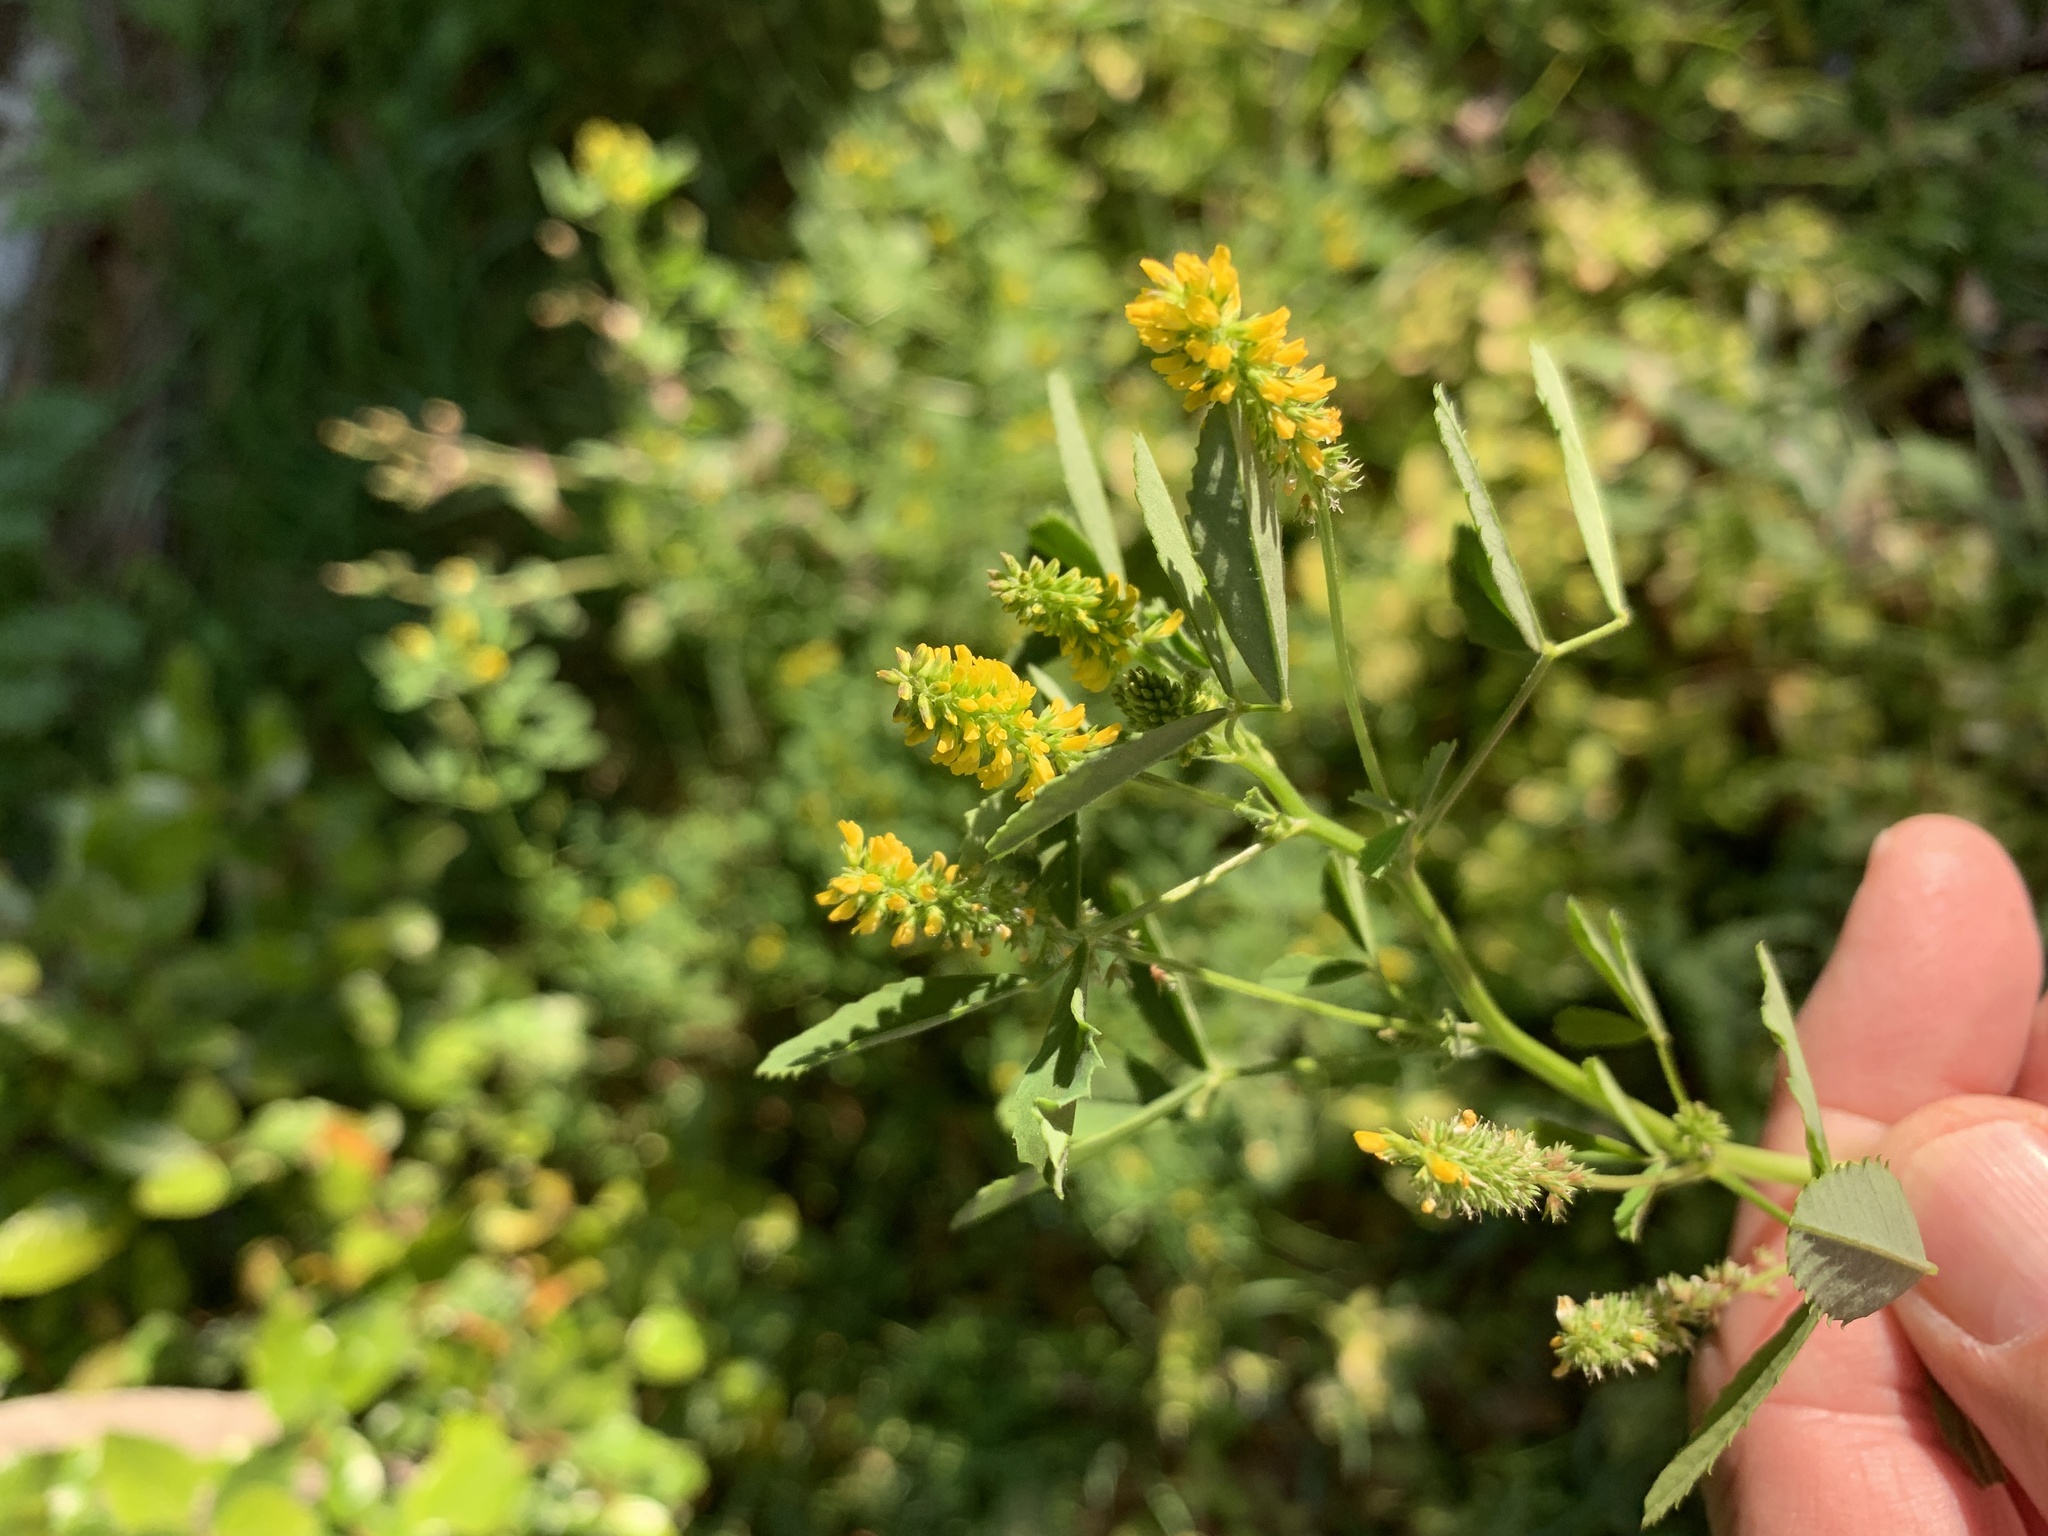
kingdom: Plantae
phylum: Tracheophyta
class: Magnoliopsida
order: Fabales
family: Fabaceae
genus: Melilotus
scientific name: Melilotus indicus
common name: Small melilot
